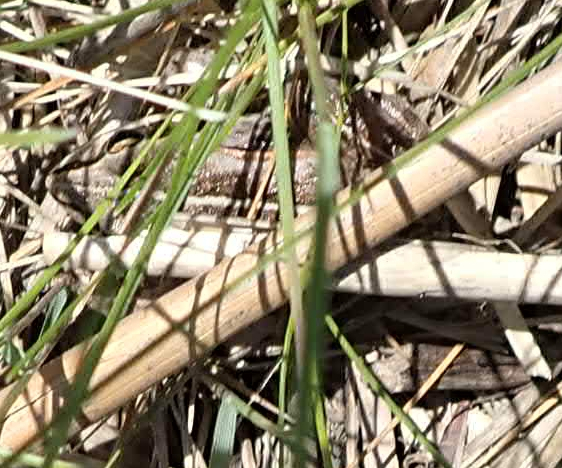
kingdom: Animalia
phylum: Chordata
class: Amphibia
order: Anura
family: Ranidae
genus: Lithobates
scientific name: Lithobates sylvaticus
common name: Wood frog
